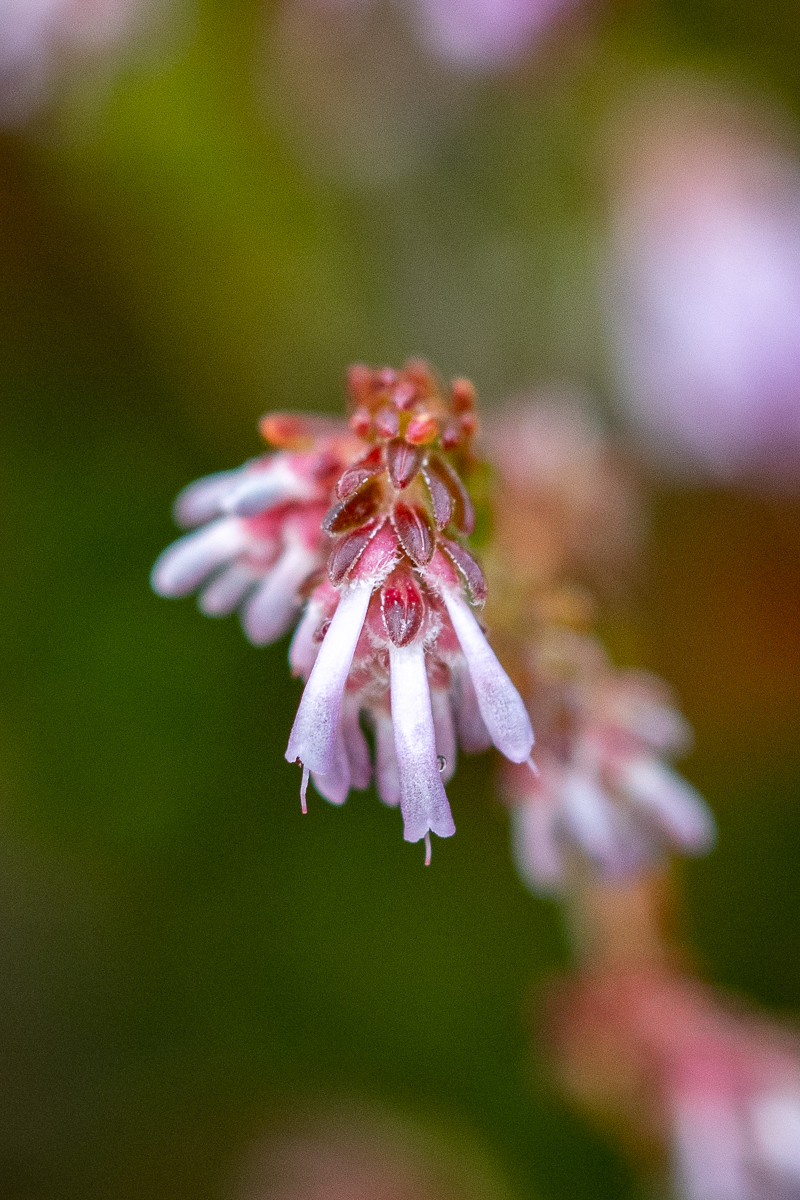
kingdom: Plantae
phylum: Tracheophyta
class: Magnoliopsida
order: Ericales
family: Ericaceae
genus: Erica
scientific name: Erica labialis
